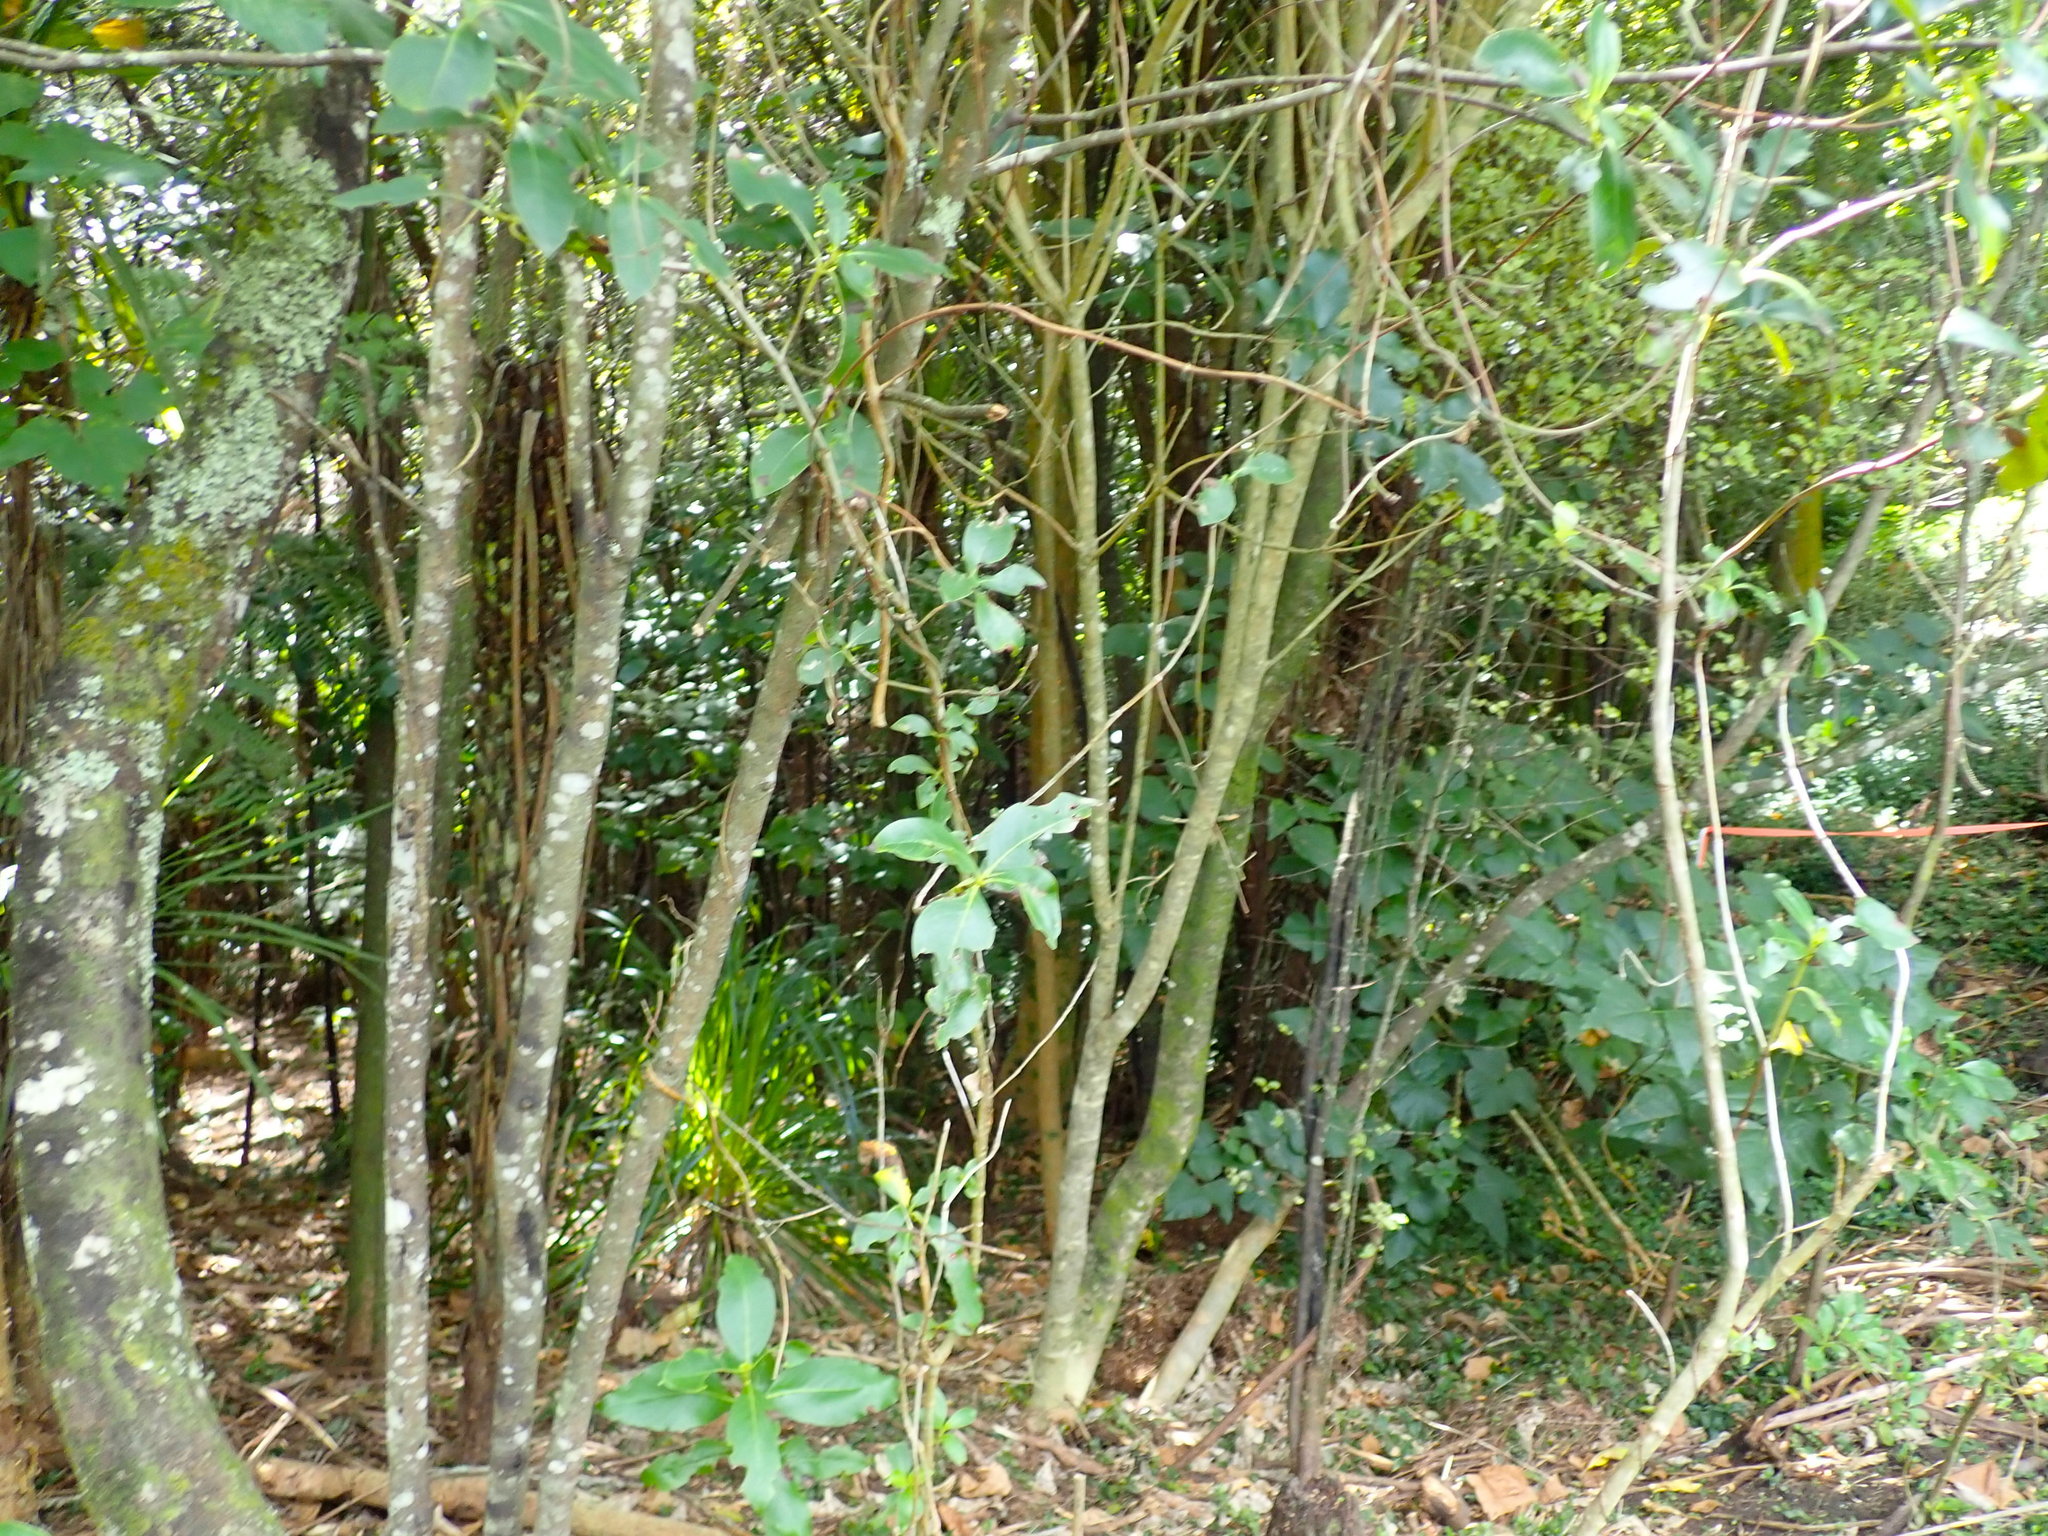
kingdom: Plantae
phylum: Tracheophyta
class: Liliopsida
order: Commelinales
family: Commelinaceae
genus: Tradescantia
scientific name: Tradescantia fluminensis
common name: Wandering-jew
